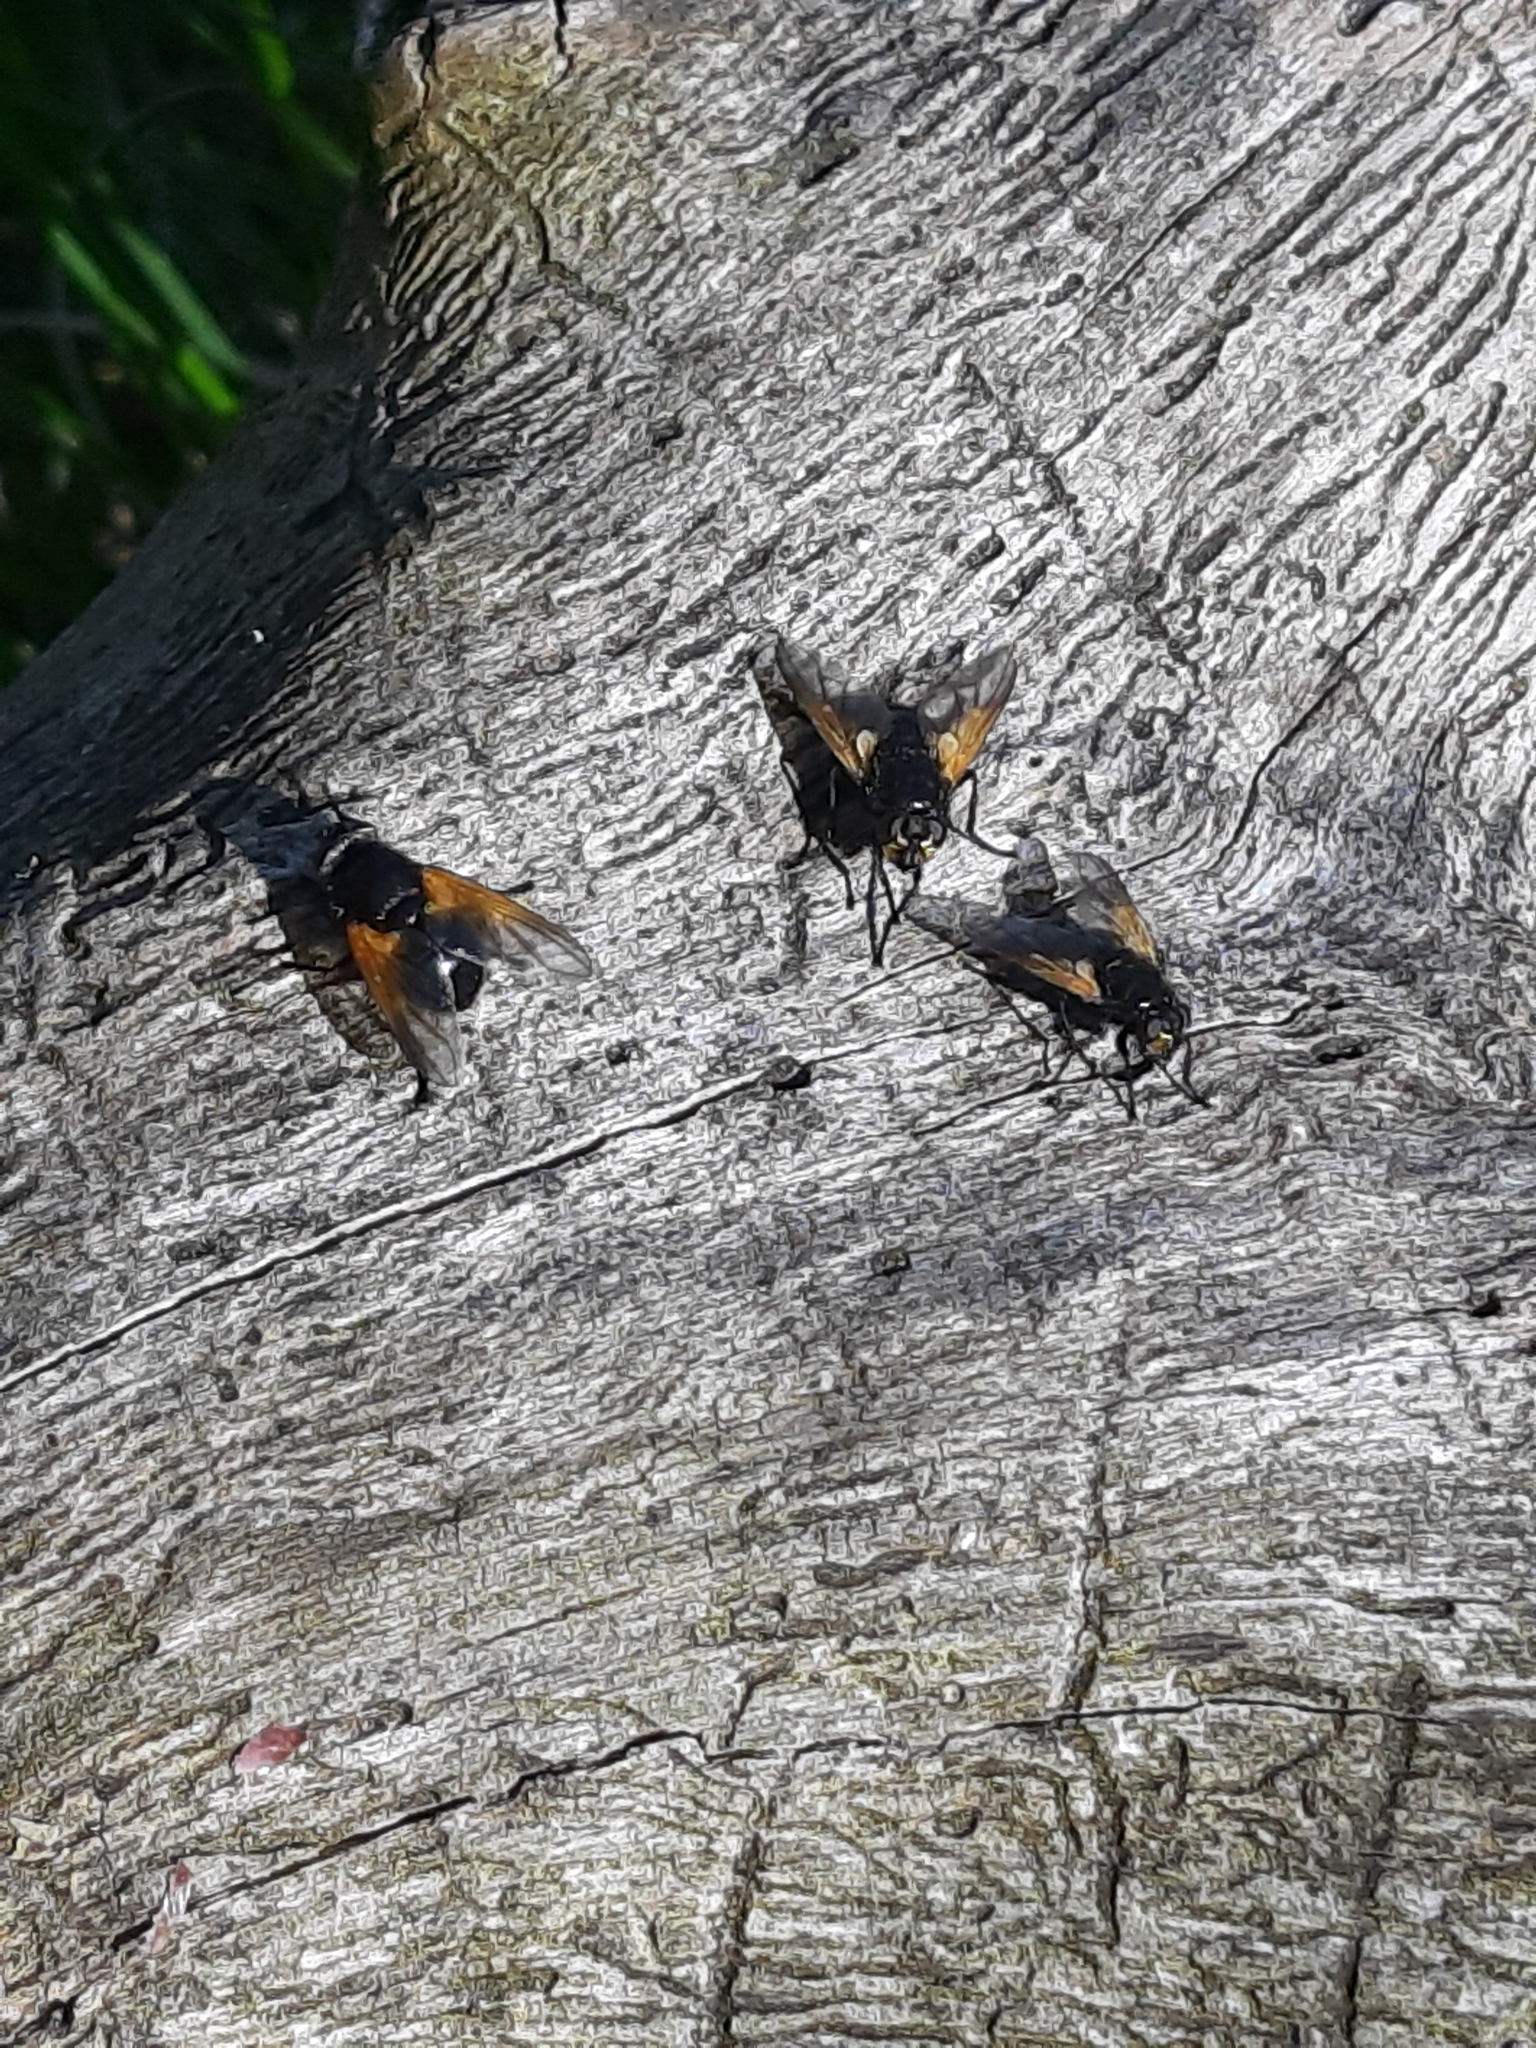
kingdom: Animalia
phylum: Arthropoda
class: Insecta
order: Diptera
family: Muscidae
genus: Mesembrina
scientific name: Mesembrina meridiana
